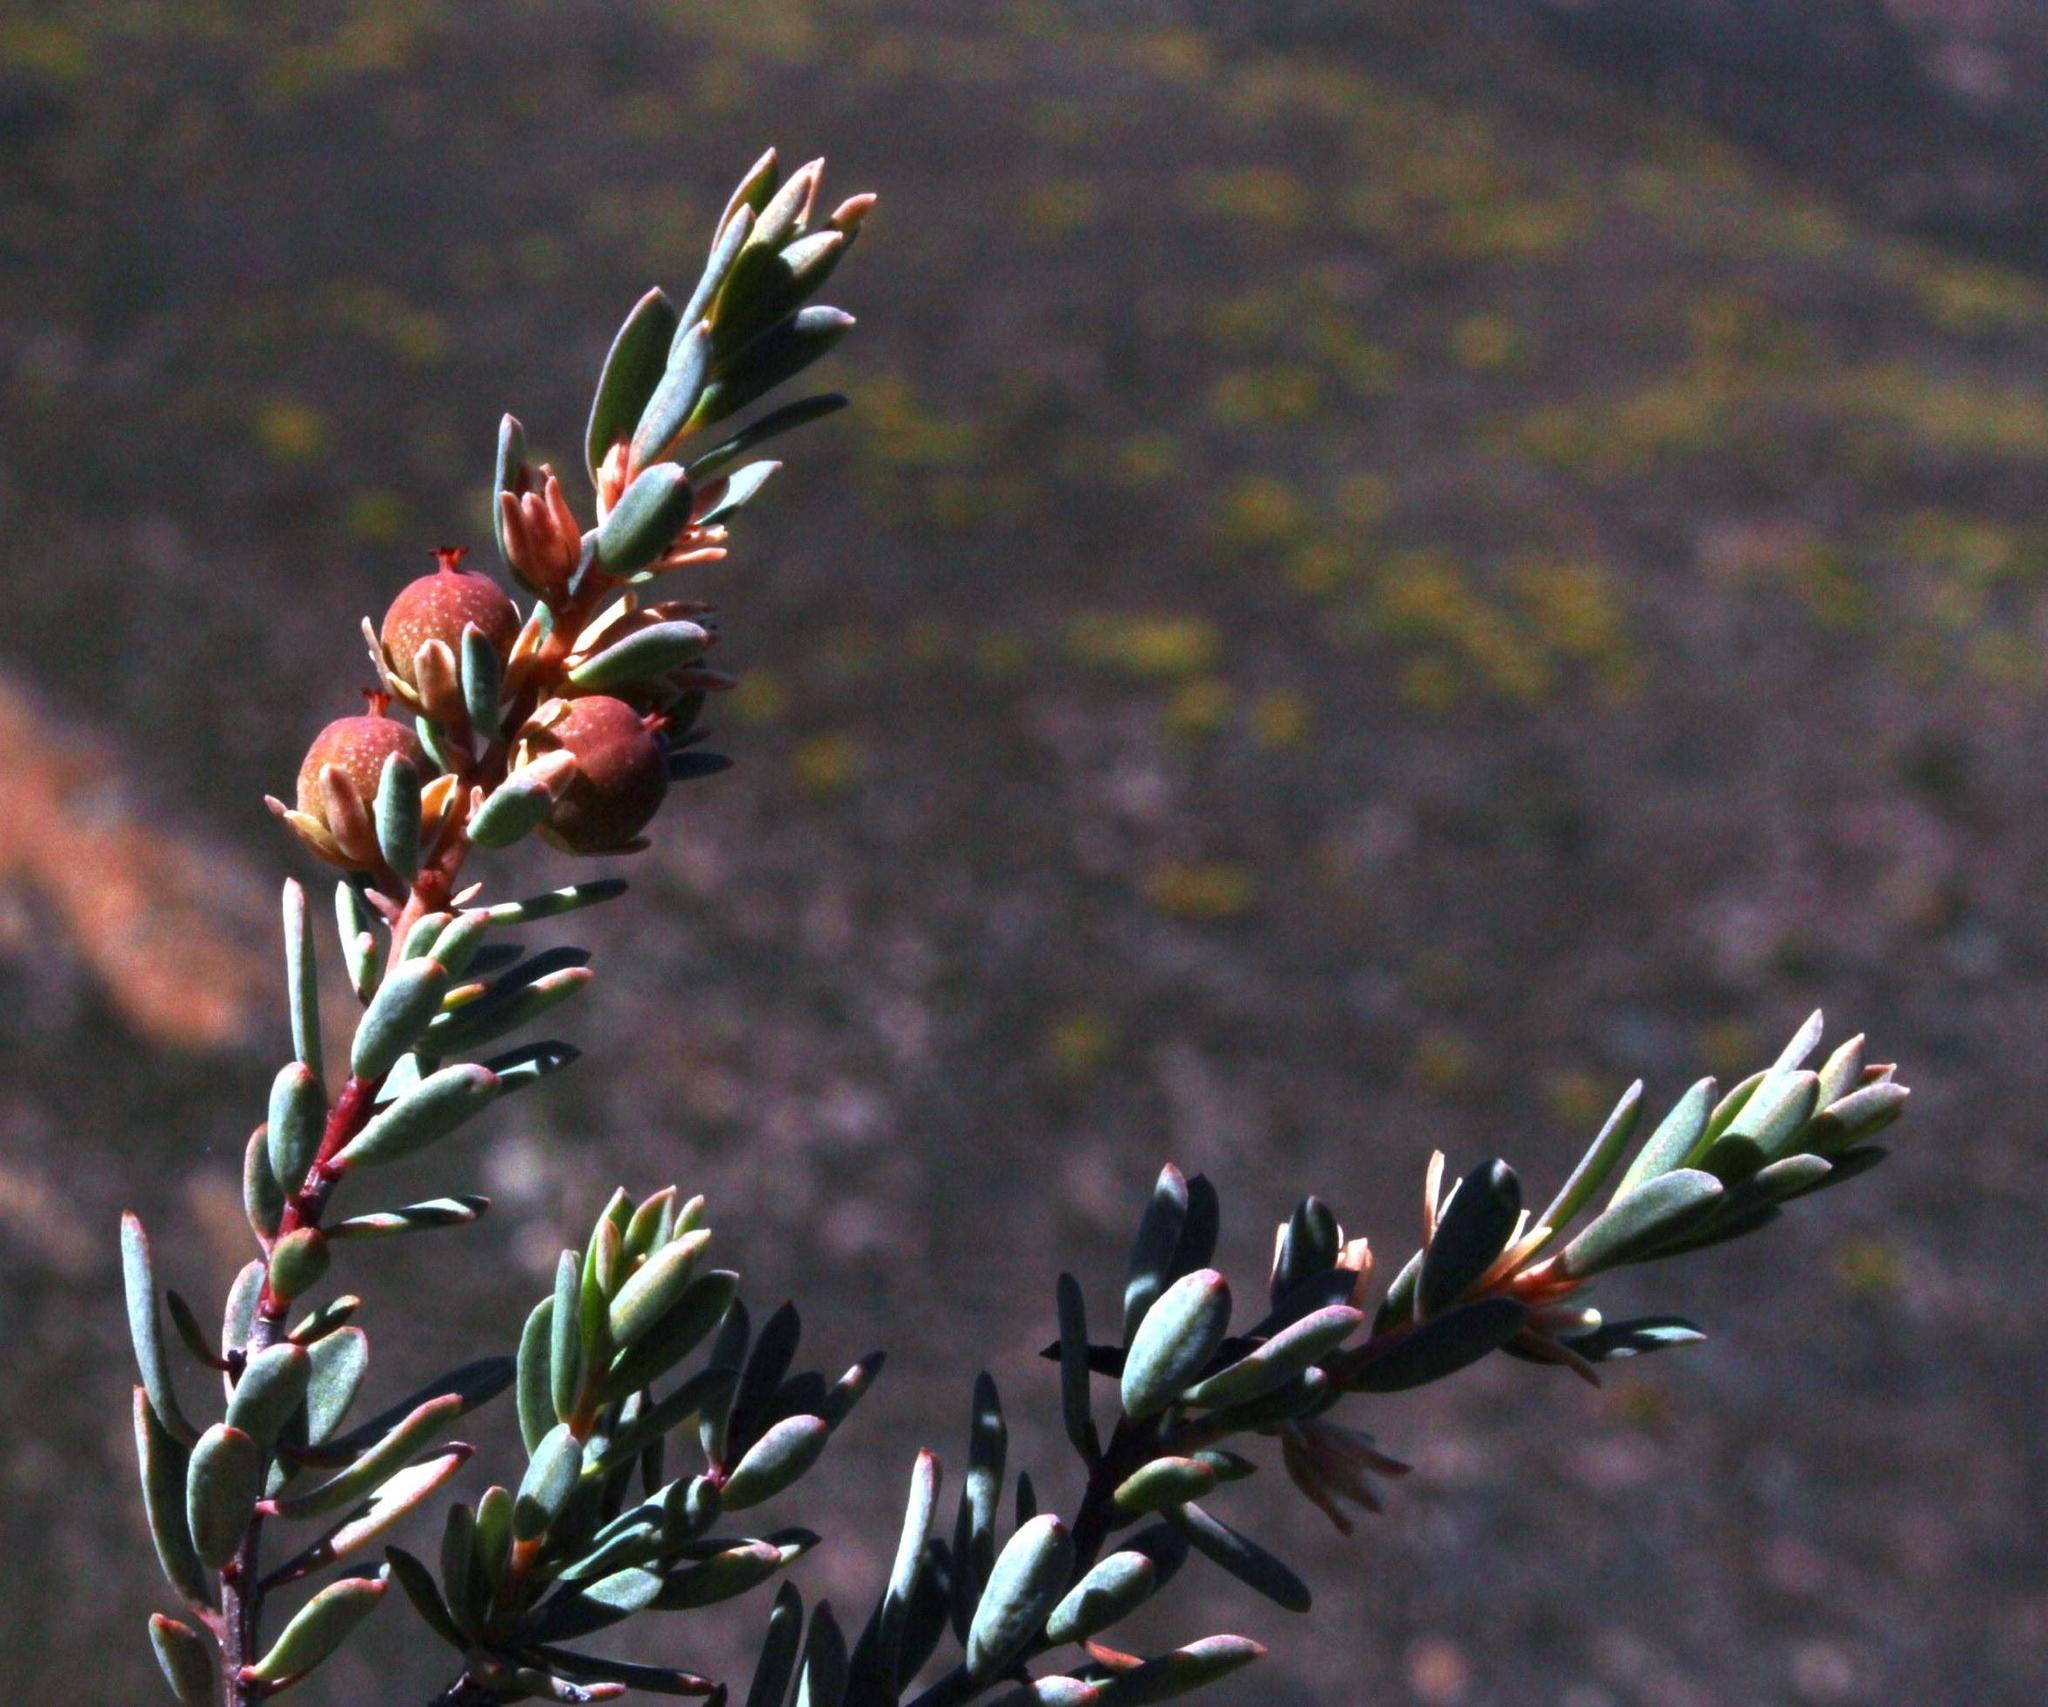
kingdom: Plantae
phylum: Tracheophyta
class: Magnoliopsida
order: Malpighiales
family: Peraceae
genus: Clutia
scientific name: Clutia laxa
